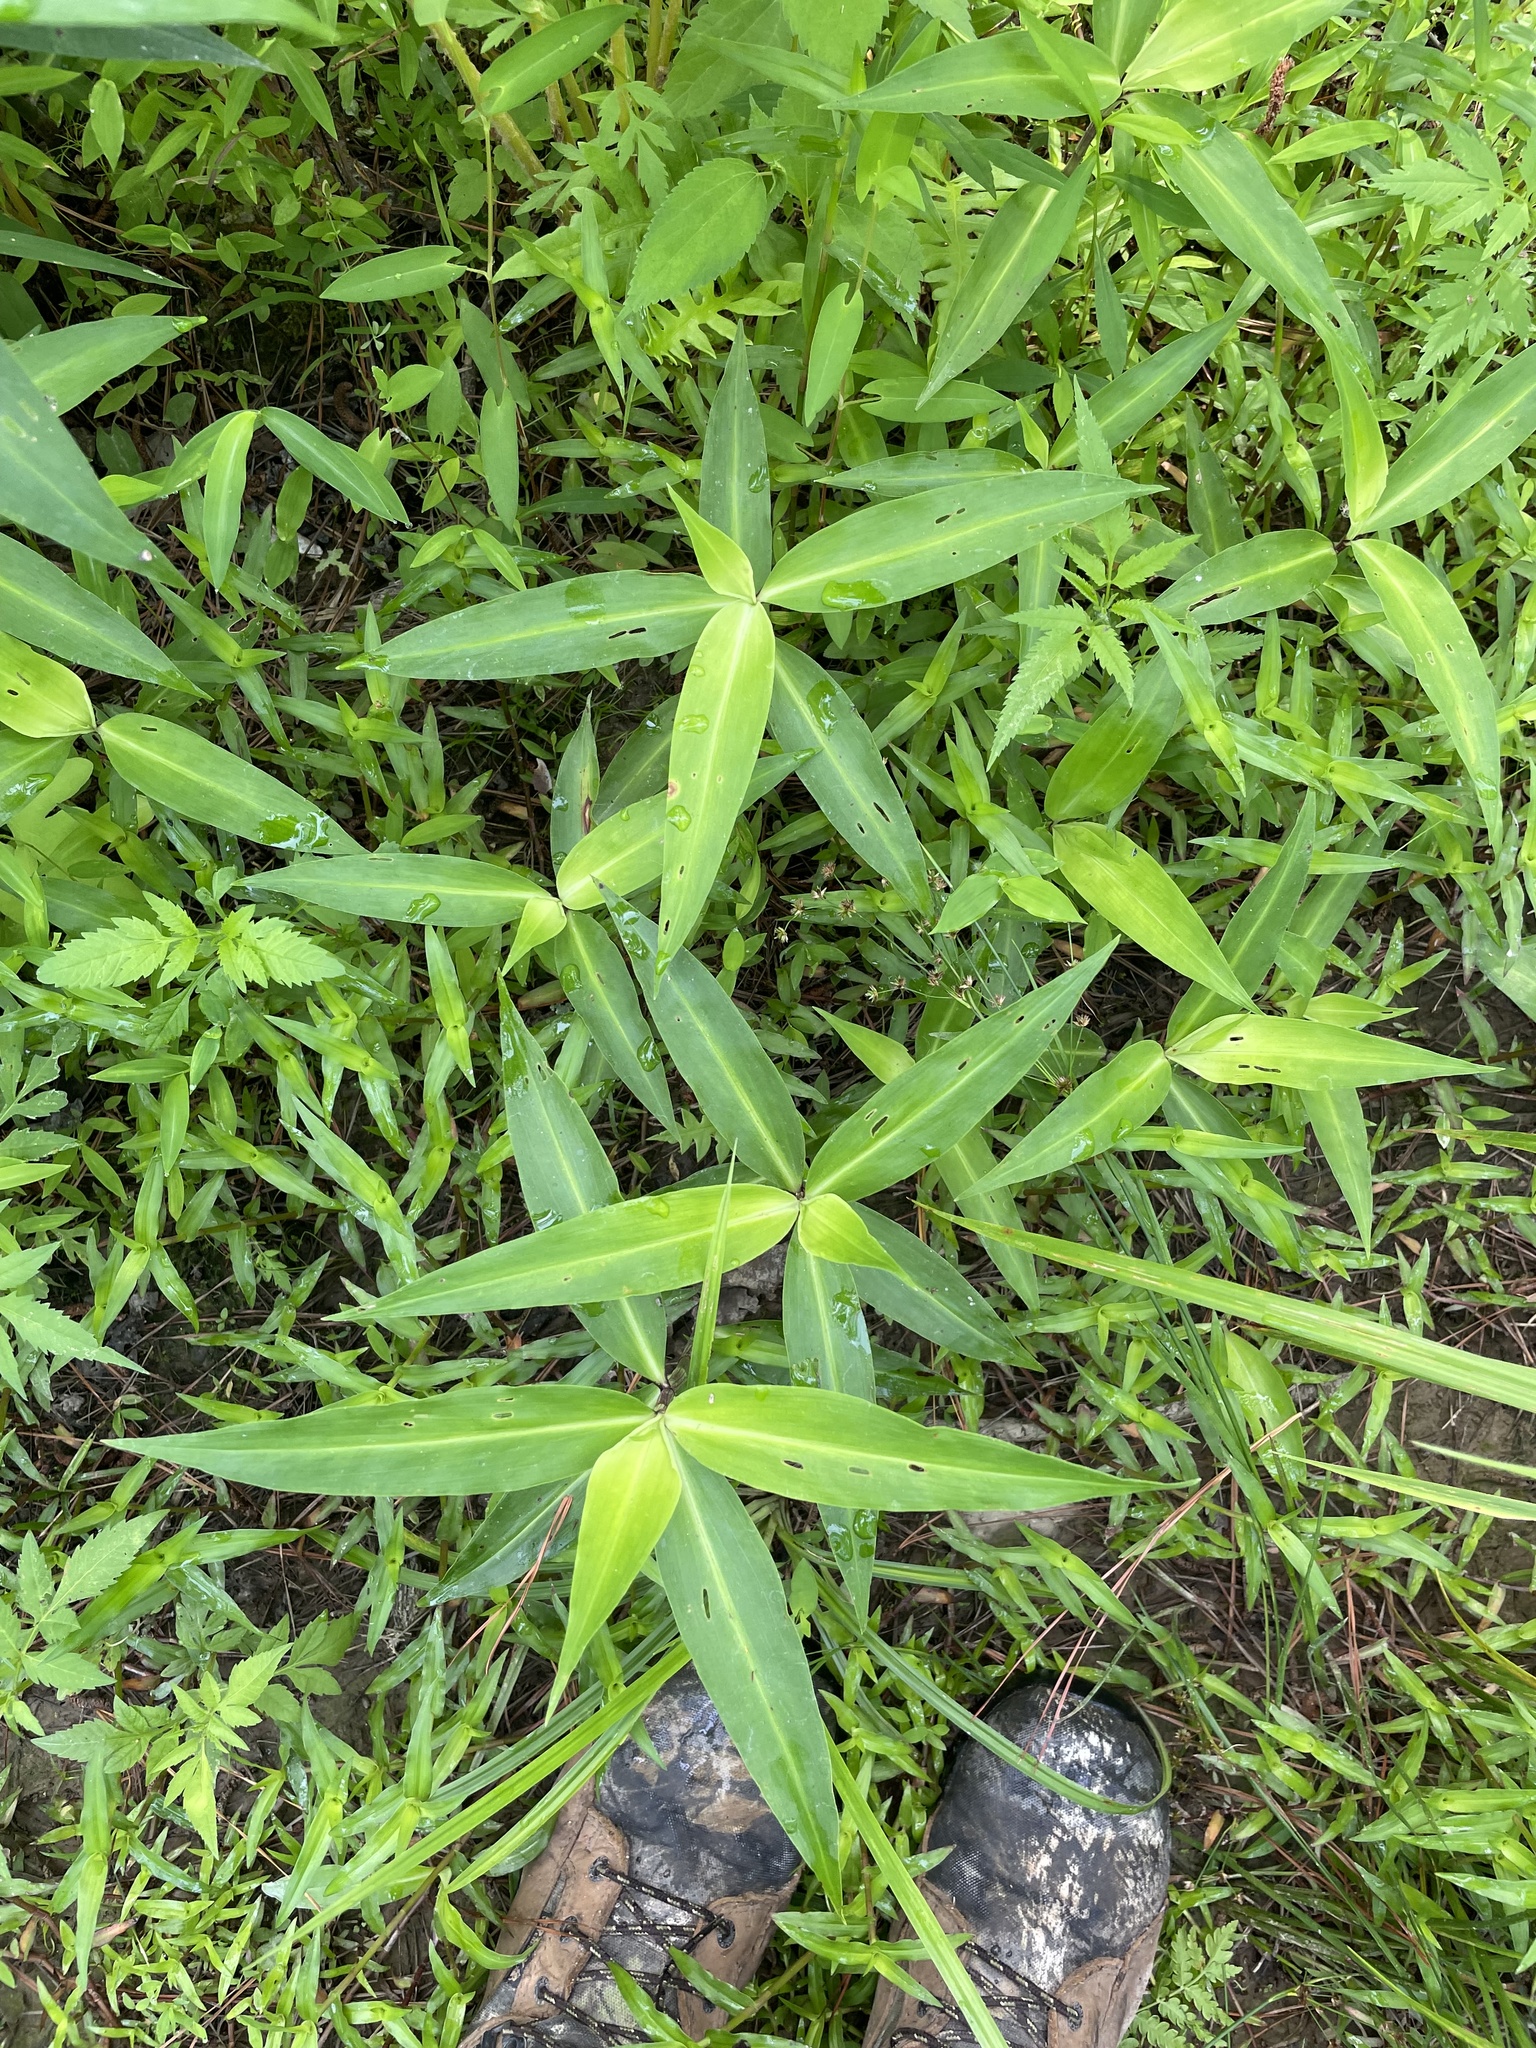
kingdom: Plantae
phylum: Tracheophyta
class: Liliopsida
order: Commelinales
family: Commelinaceae
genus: Commelina
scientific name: Commelina virginica
